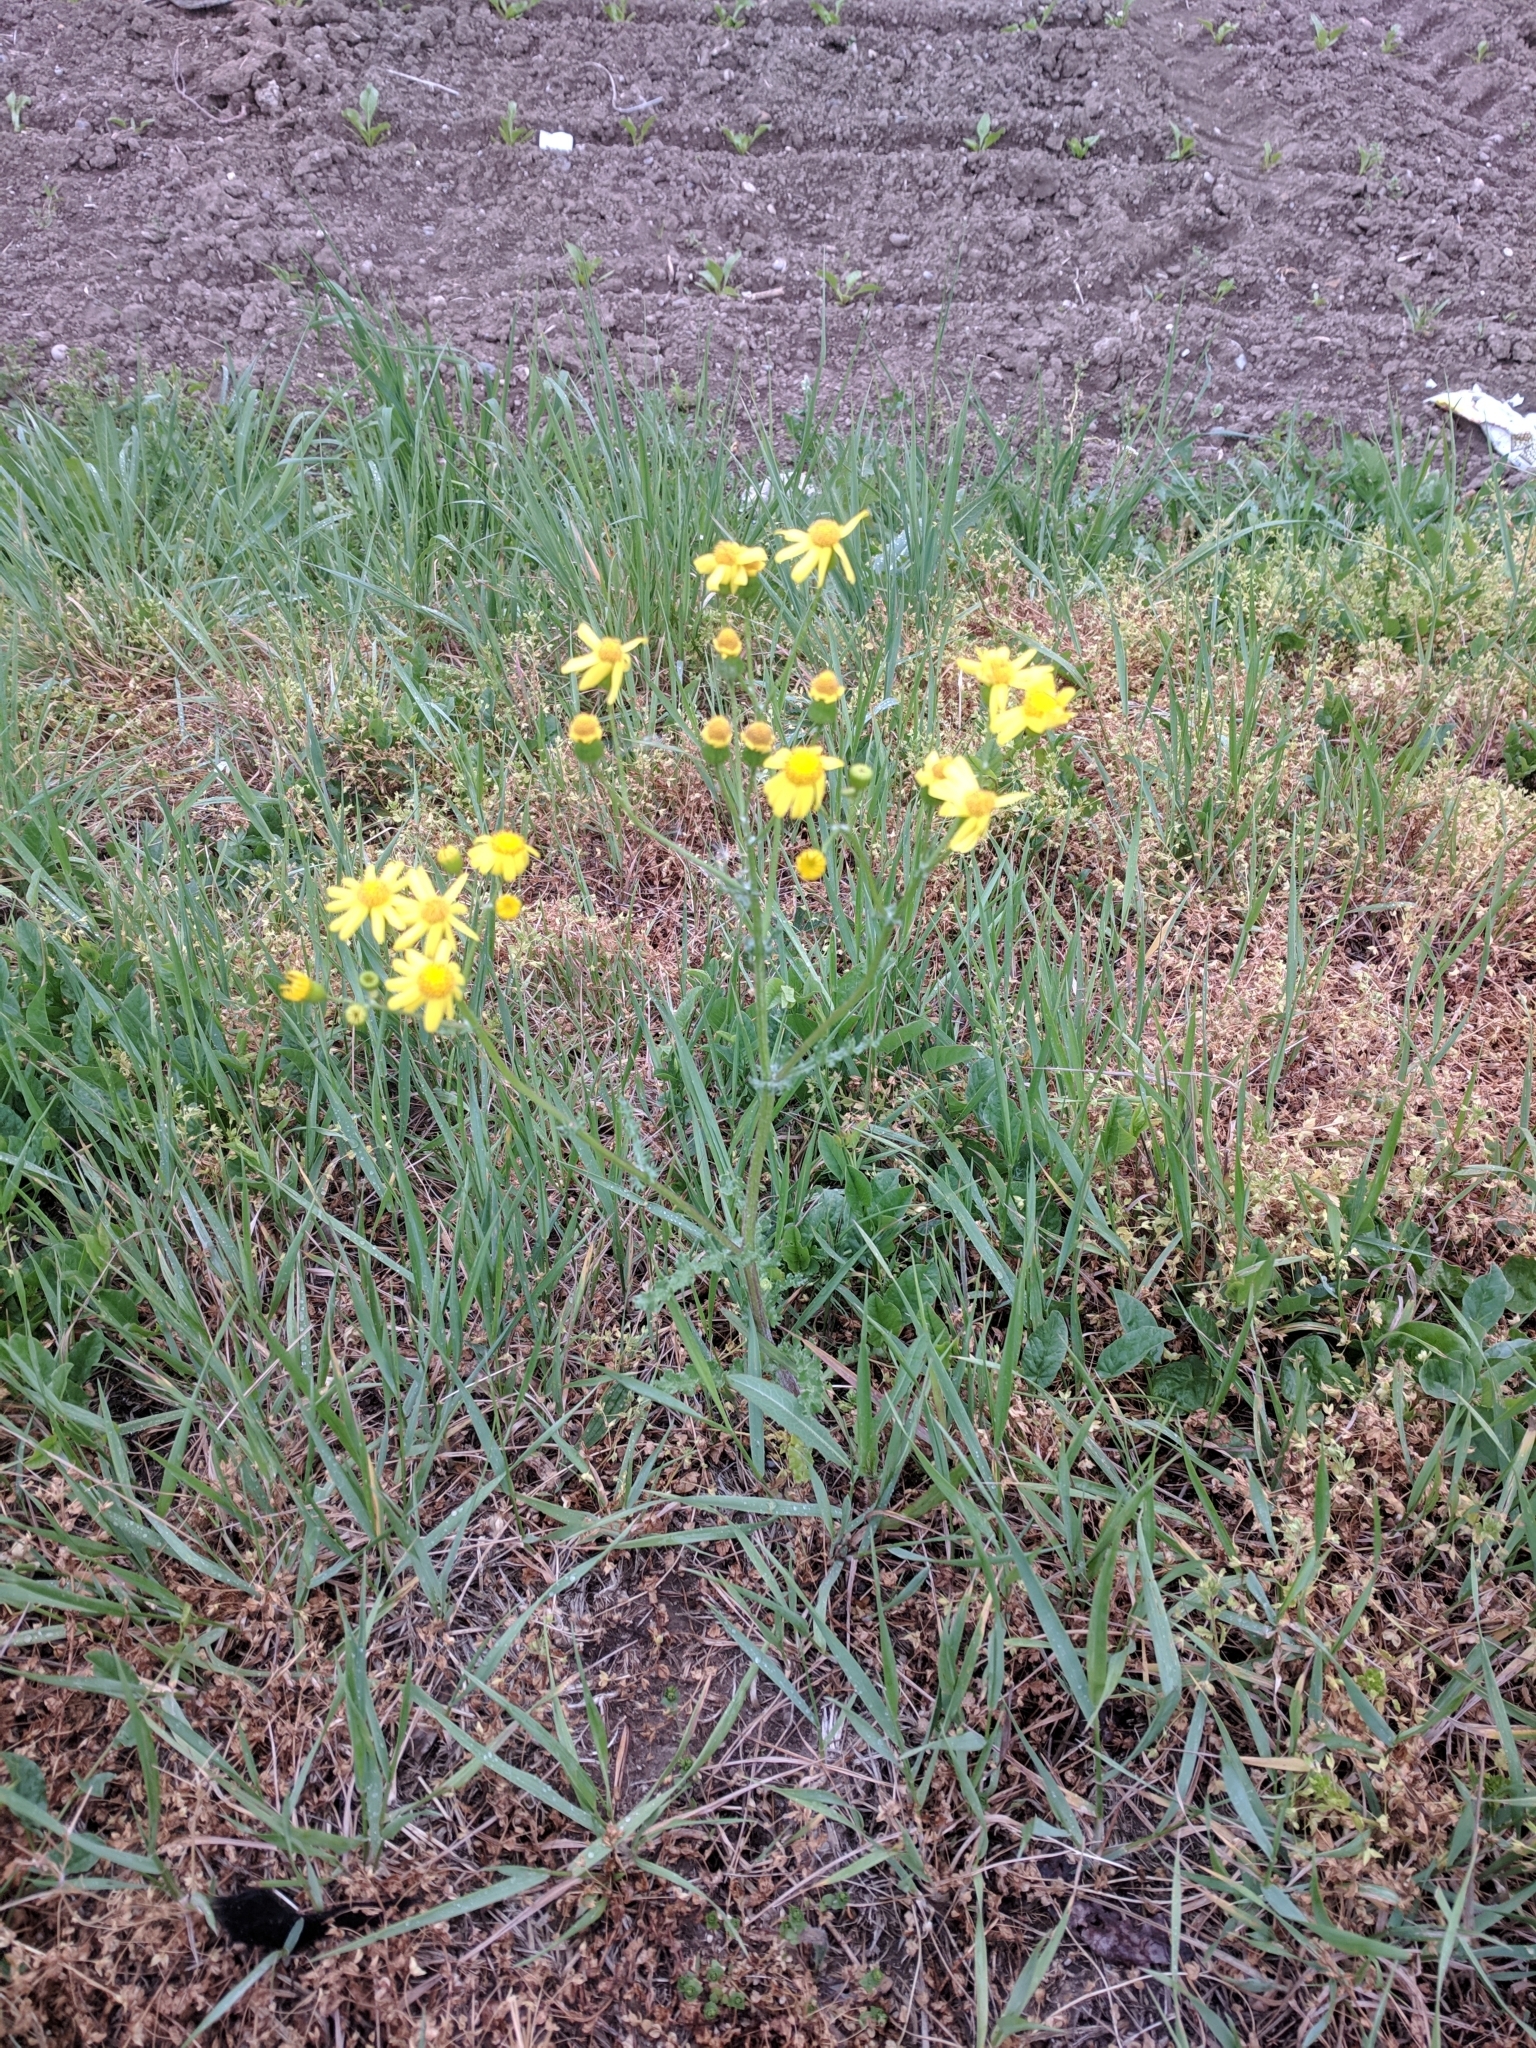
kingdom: Plantae
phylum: Tracheophyta
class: Magnoliopsida
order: Asterales
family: Asteraceae
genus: Senecio
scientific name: Senecio vernalis
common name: Eastern groundsel
